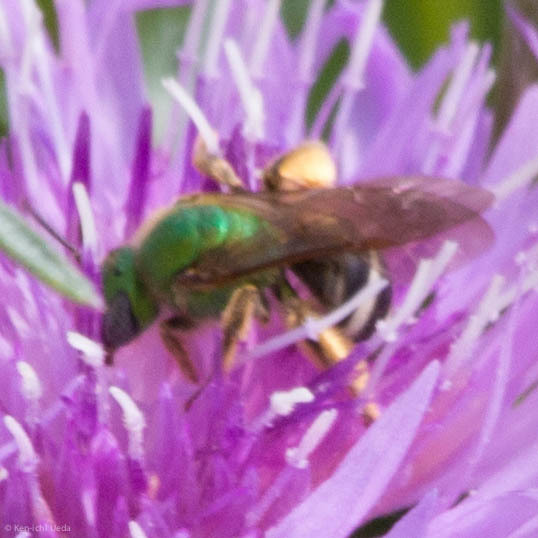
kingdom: Animalia
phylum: Arthropoda
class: Insecta
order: Hymenoptera
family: Halictidae
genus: Agapostemon
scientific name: Agapostemon virescens
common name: Bicolored striped sweat bee
